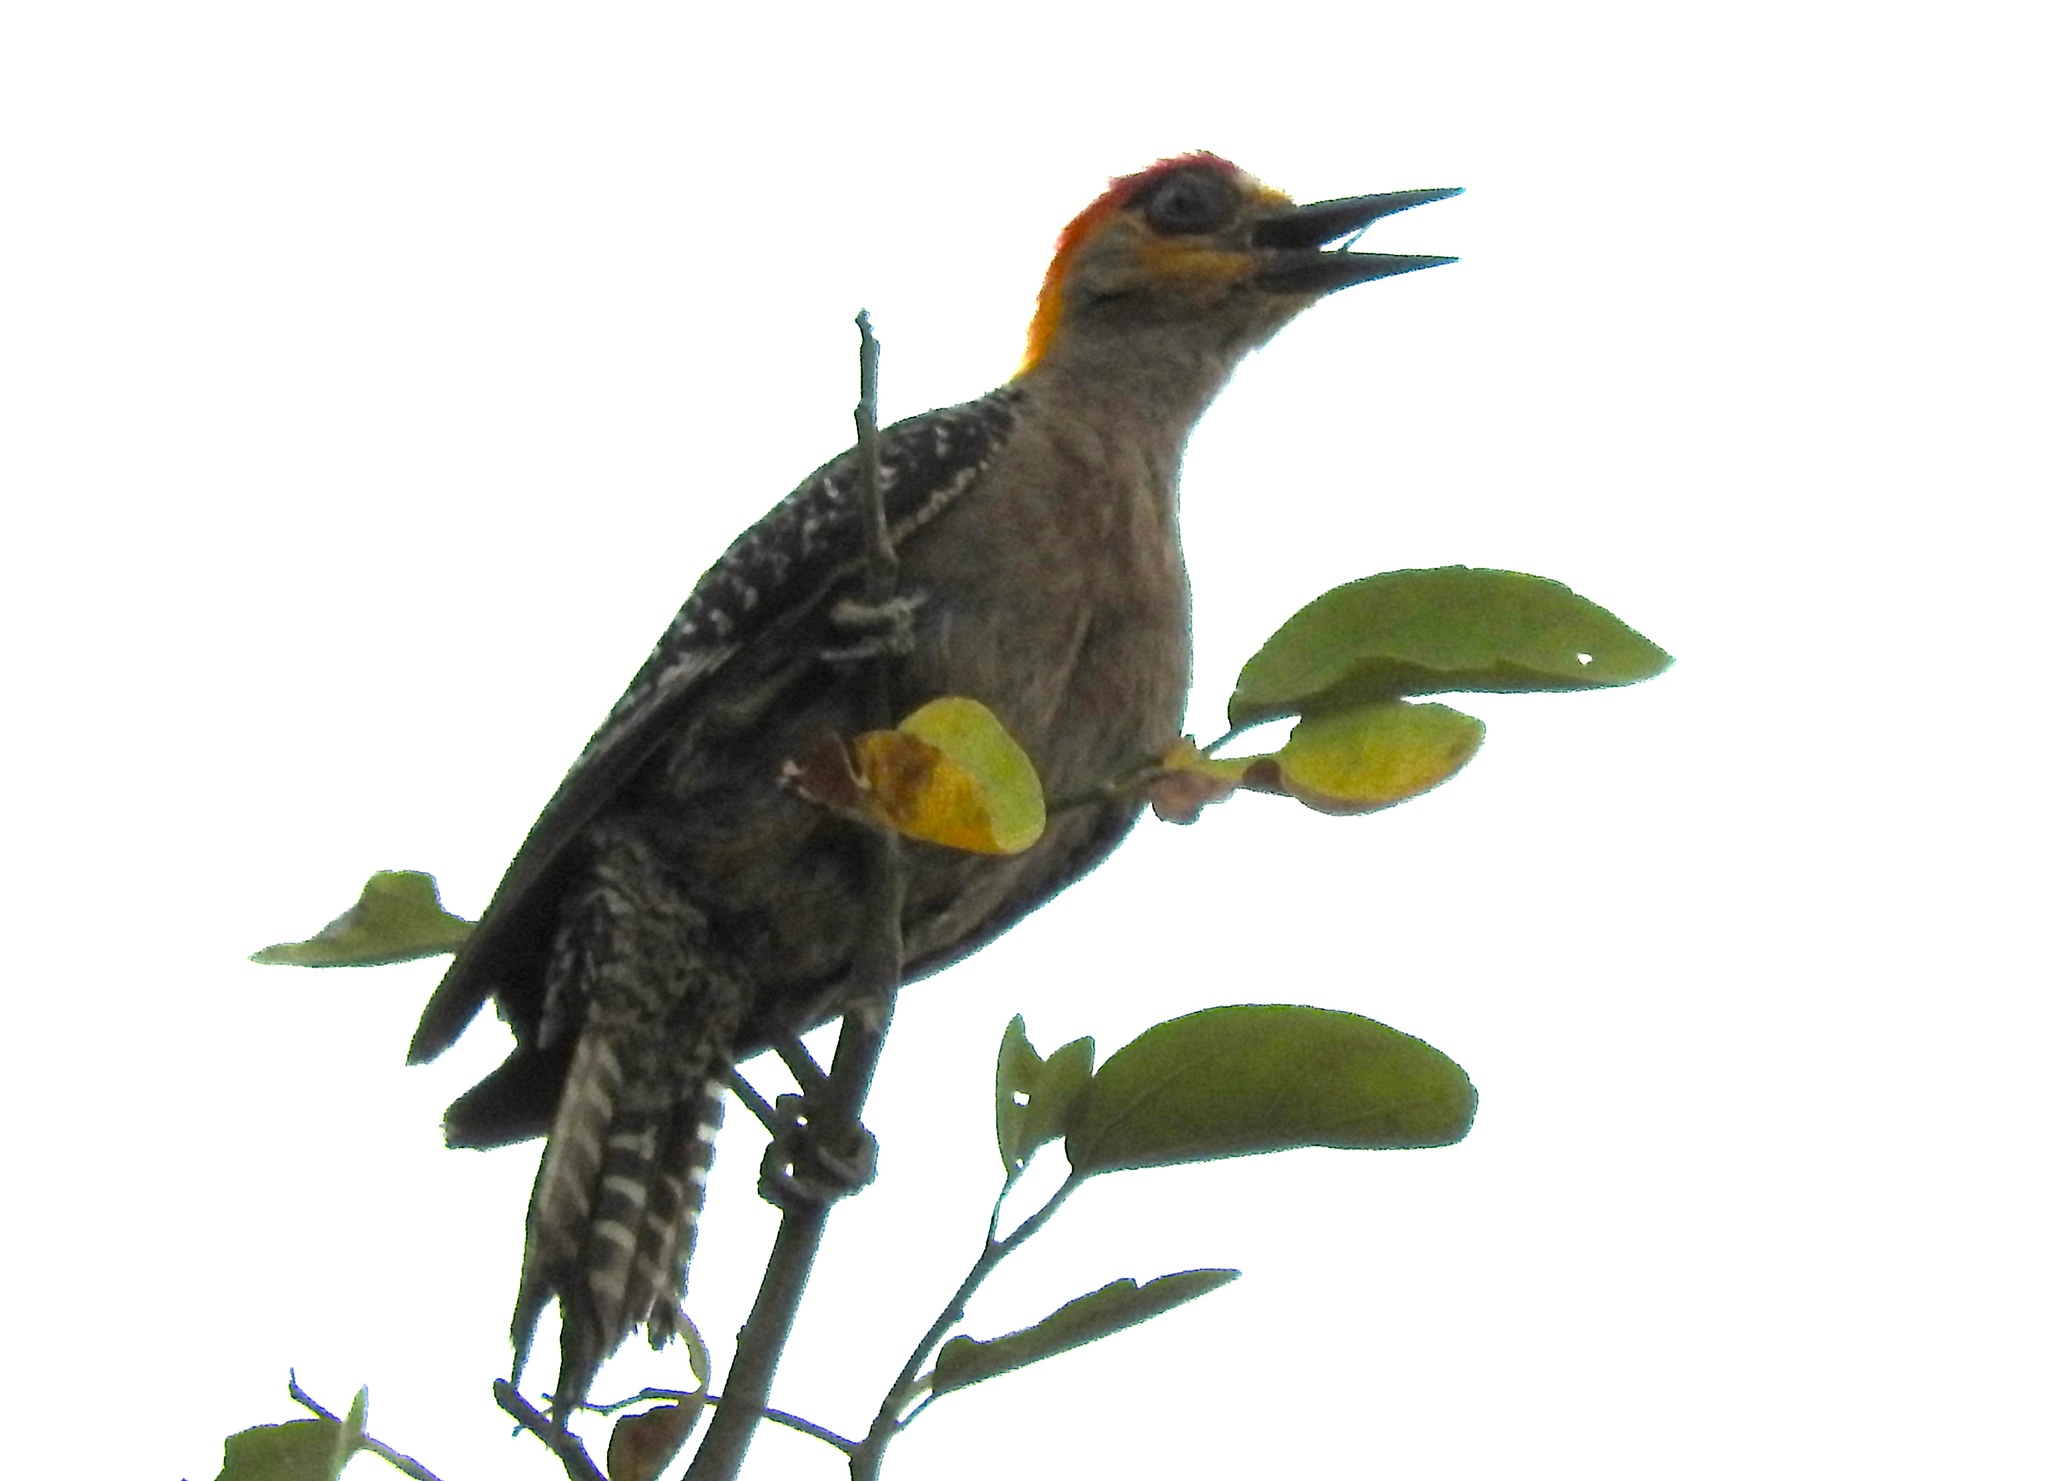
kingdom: Animalia
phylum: Chordata
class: Aves
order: Piciformes
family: Picidae
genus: Melanerpes
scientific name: Melanerpes chrysogenys
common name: Golden-cheeked woodpecker
